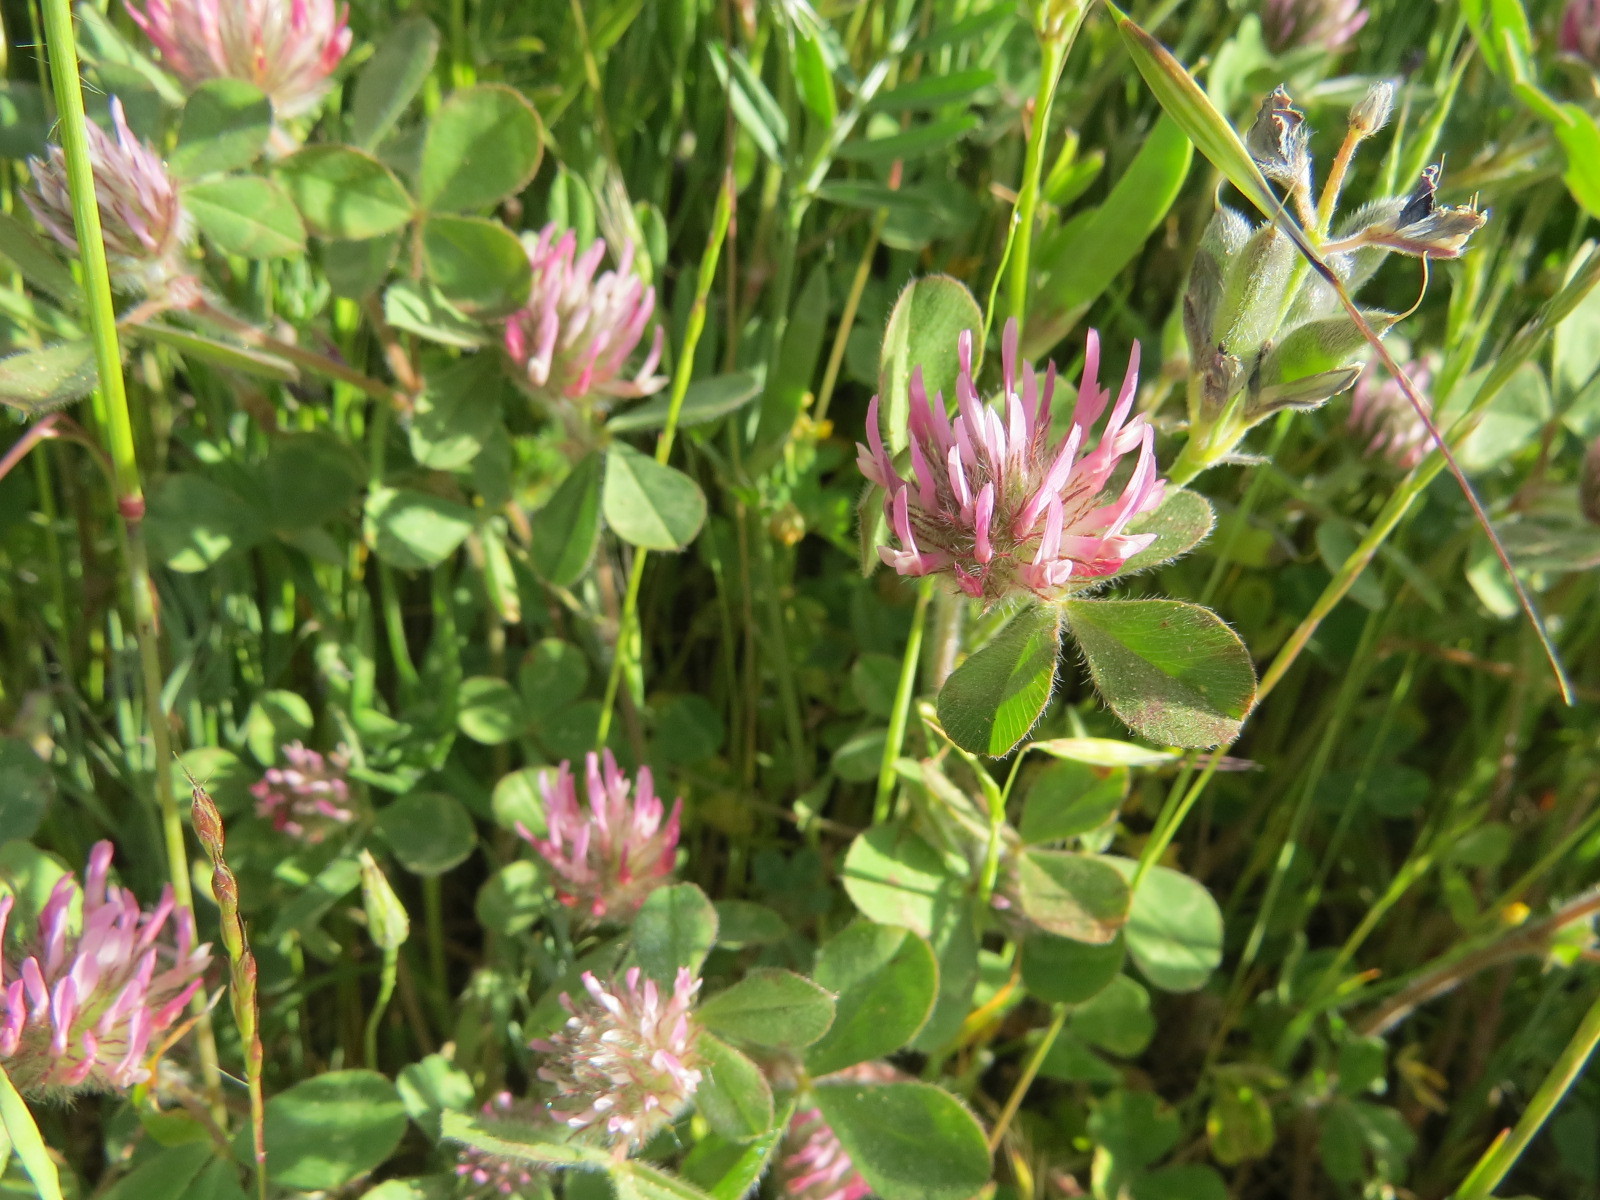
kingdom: Plantae
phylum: Tracheophyta
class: Magnoliopsida
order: Fabales
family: Fabaceae
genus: Trifolium
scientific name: Trifolium hirtum
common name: Rose clover
